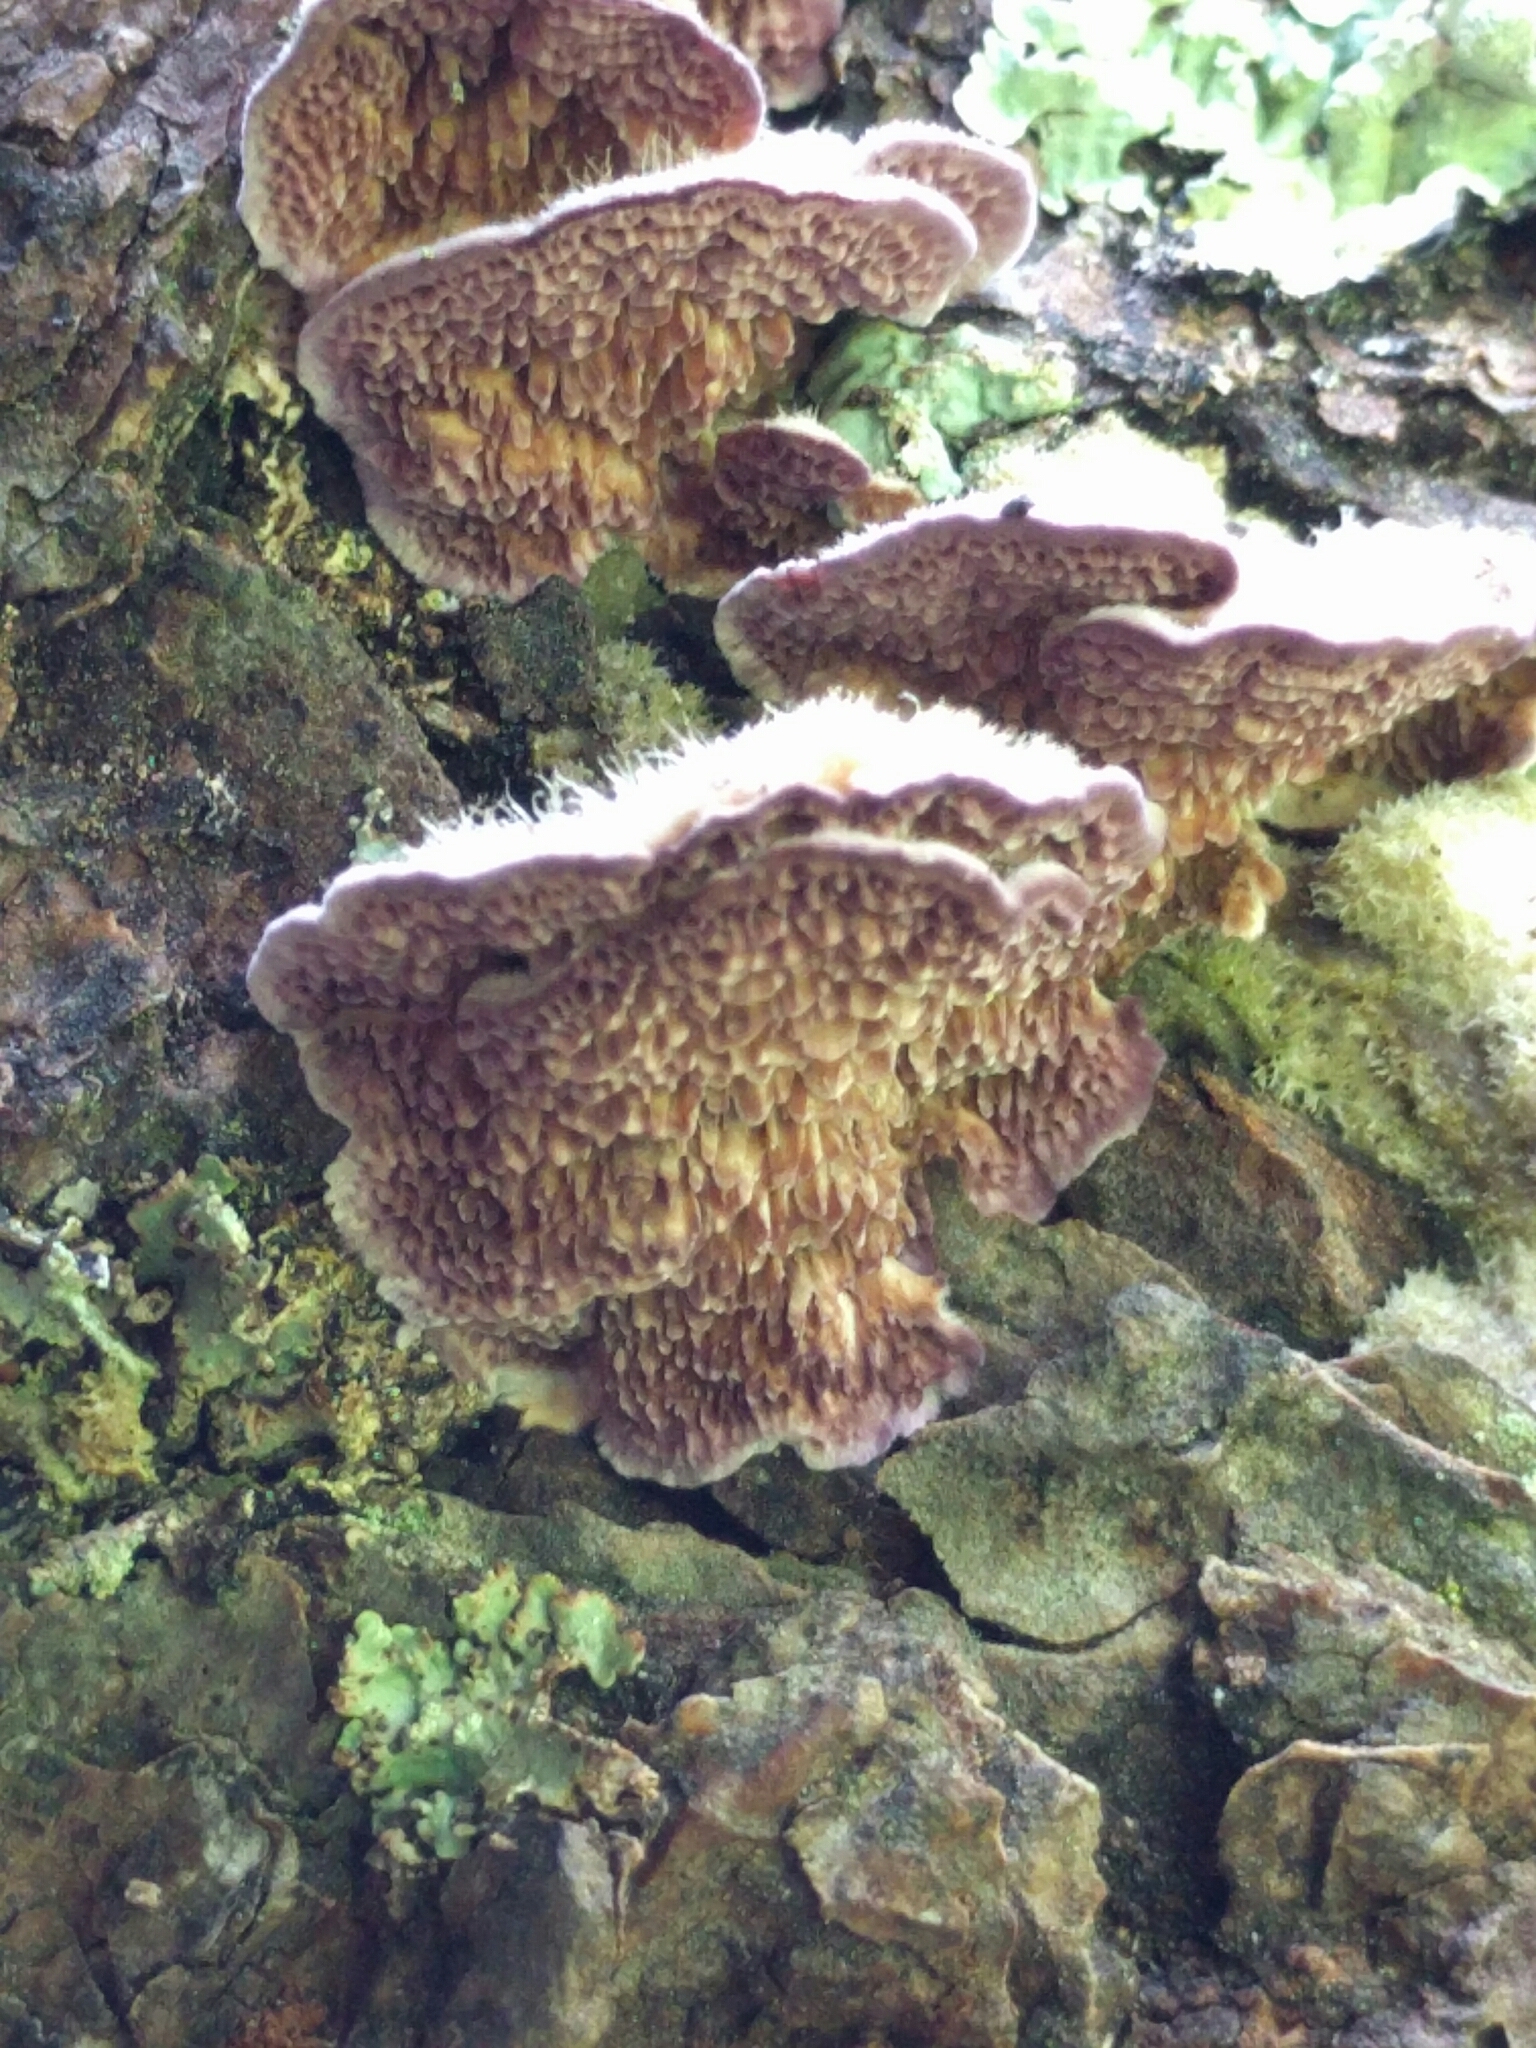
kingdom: Fungi
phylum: Basidiomycota
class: Agaricomycetes
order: Hymenochaetales
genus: Trichaptum
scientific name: Trichaptum abietinum
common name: Purplepore bracket
